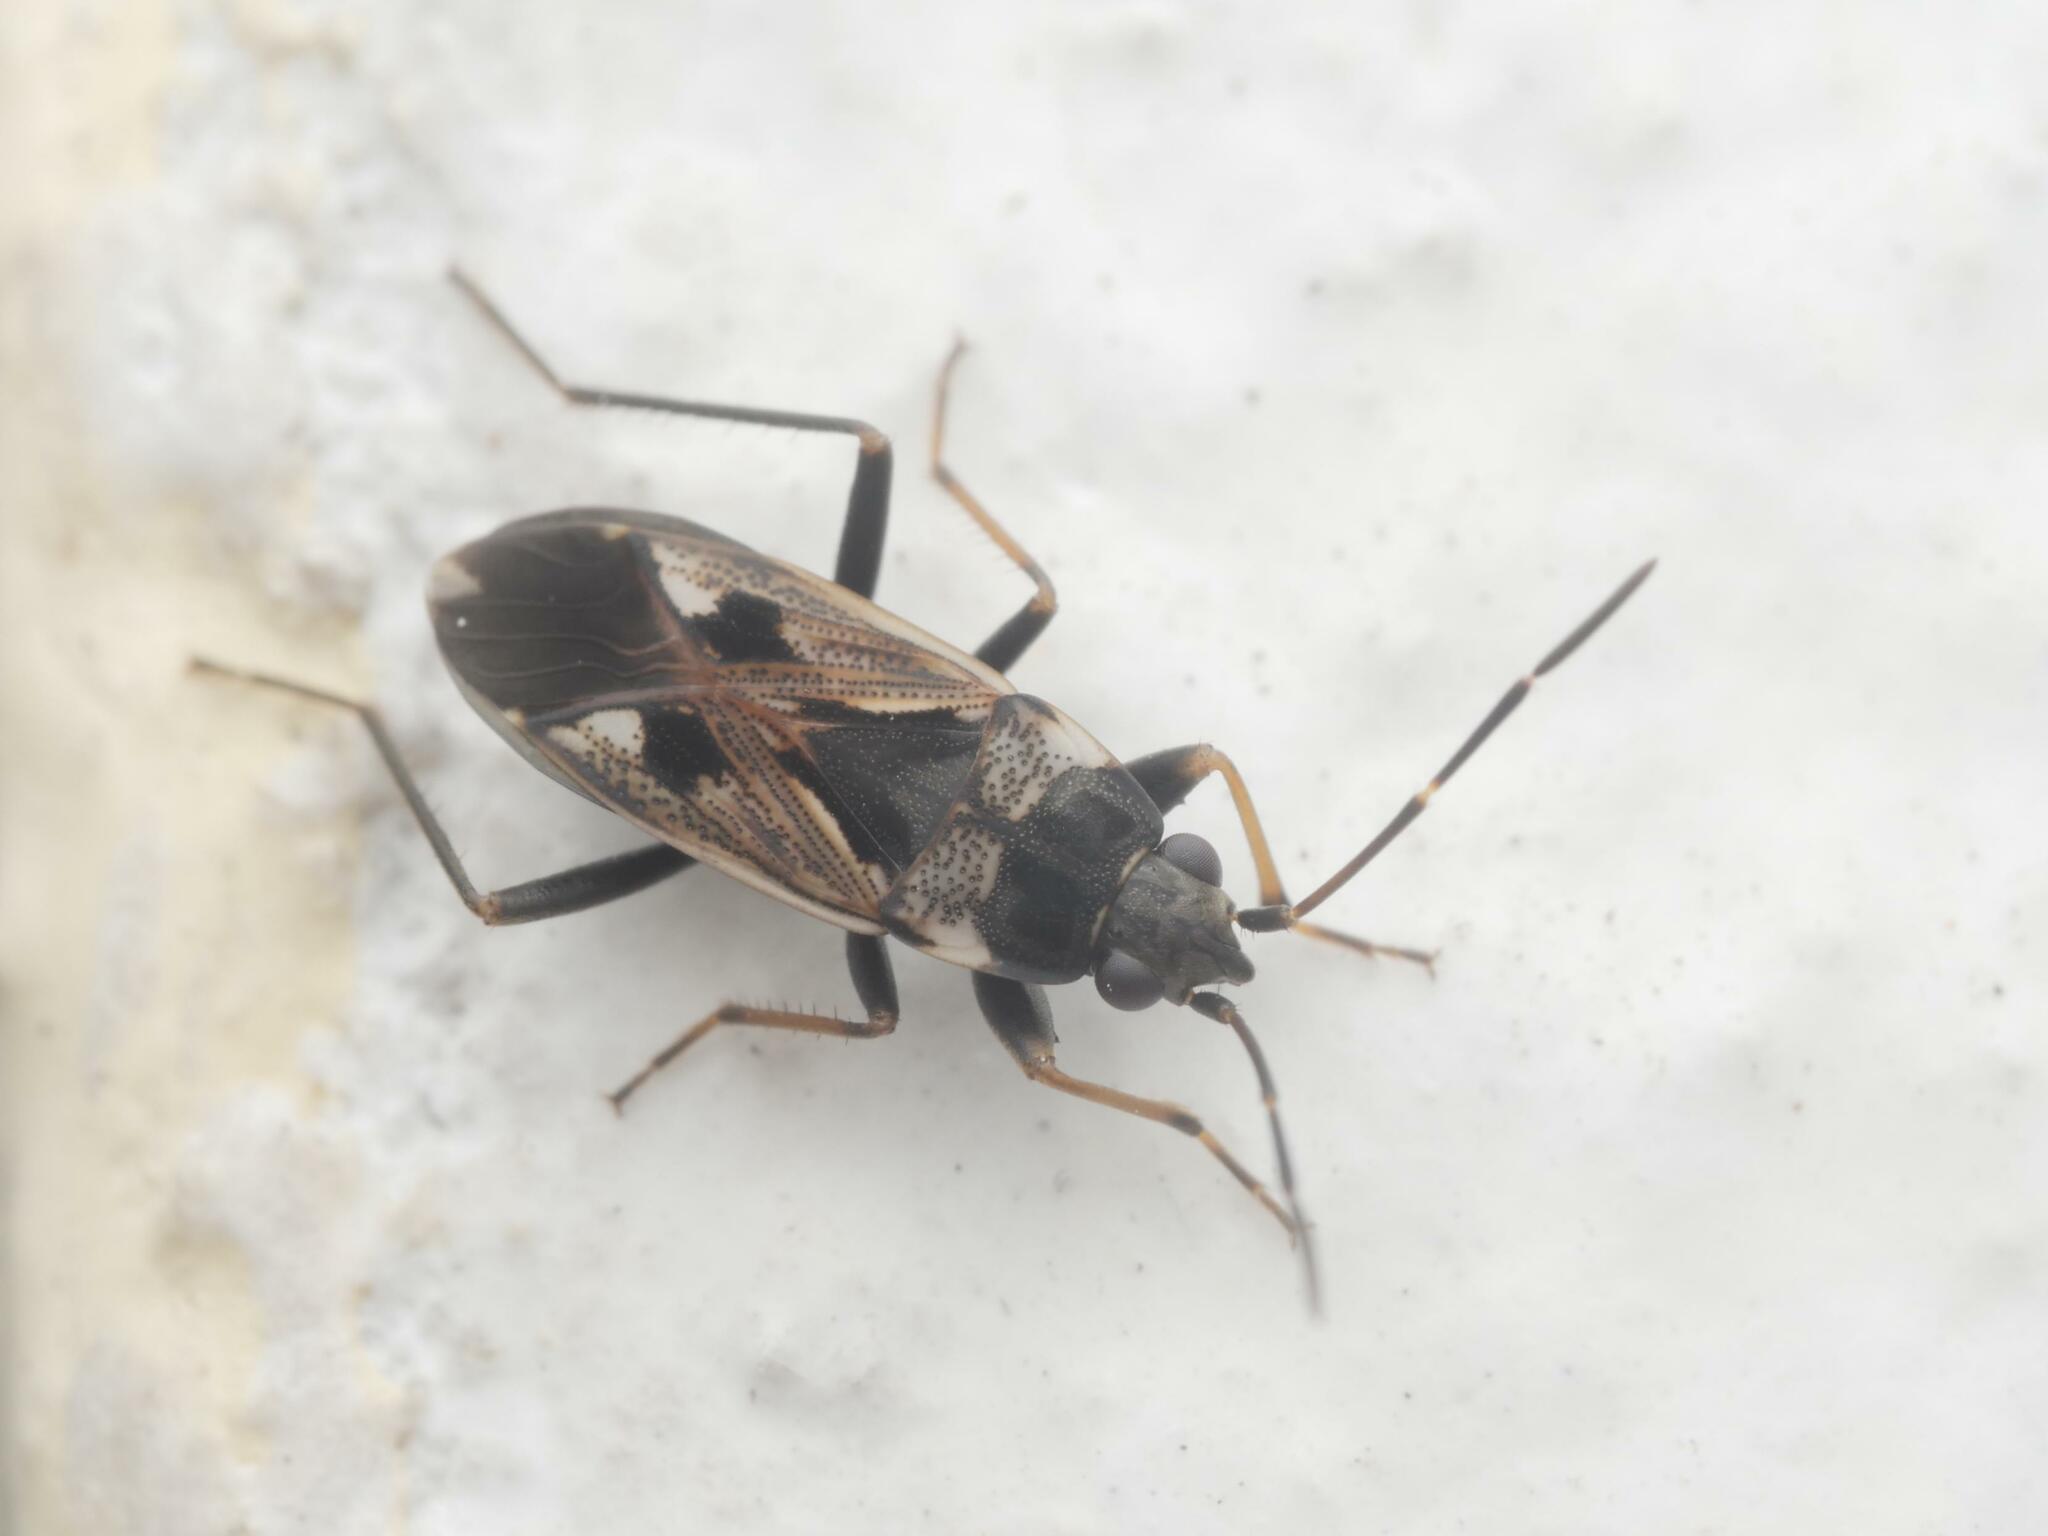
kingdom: Animalia
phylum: Arthropoda
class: Insecta
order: Hemiptera
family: Rhyparochromidae
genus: Rhyparochromus
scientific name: Rhyparochromus vulgaris
